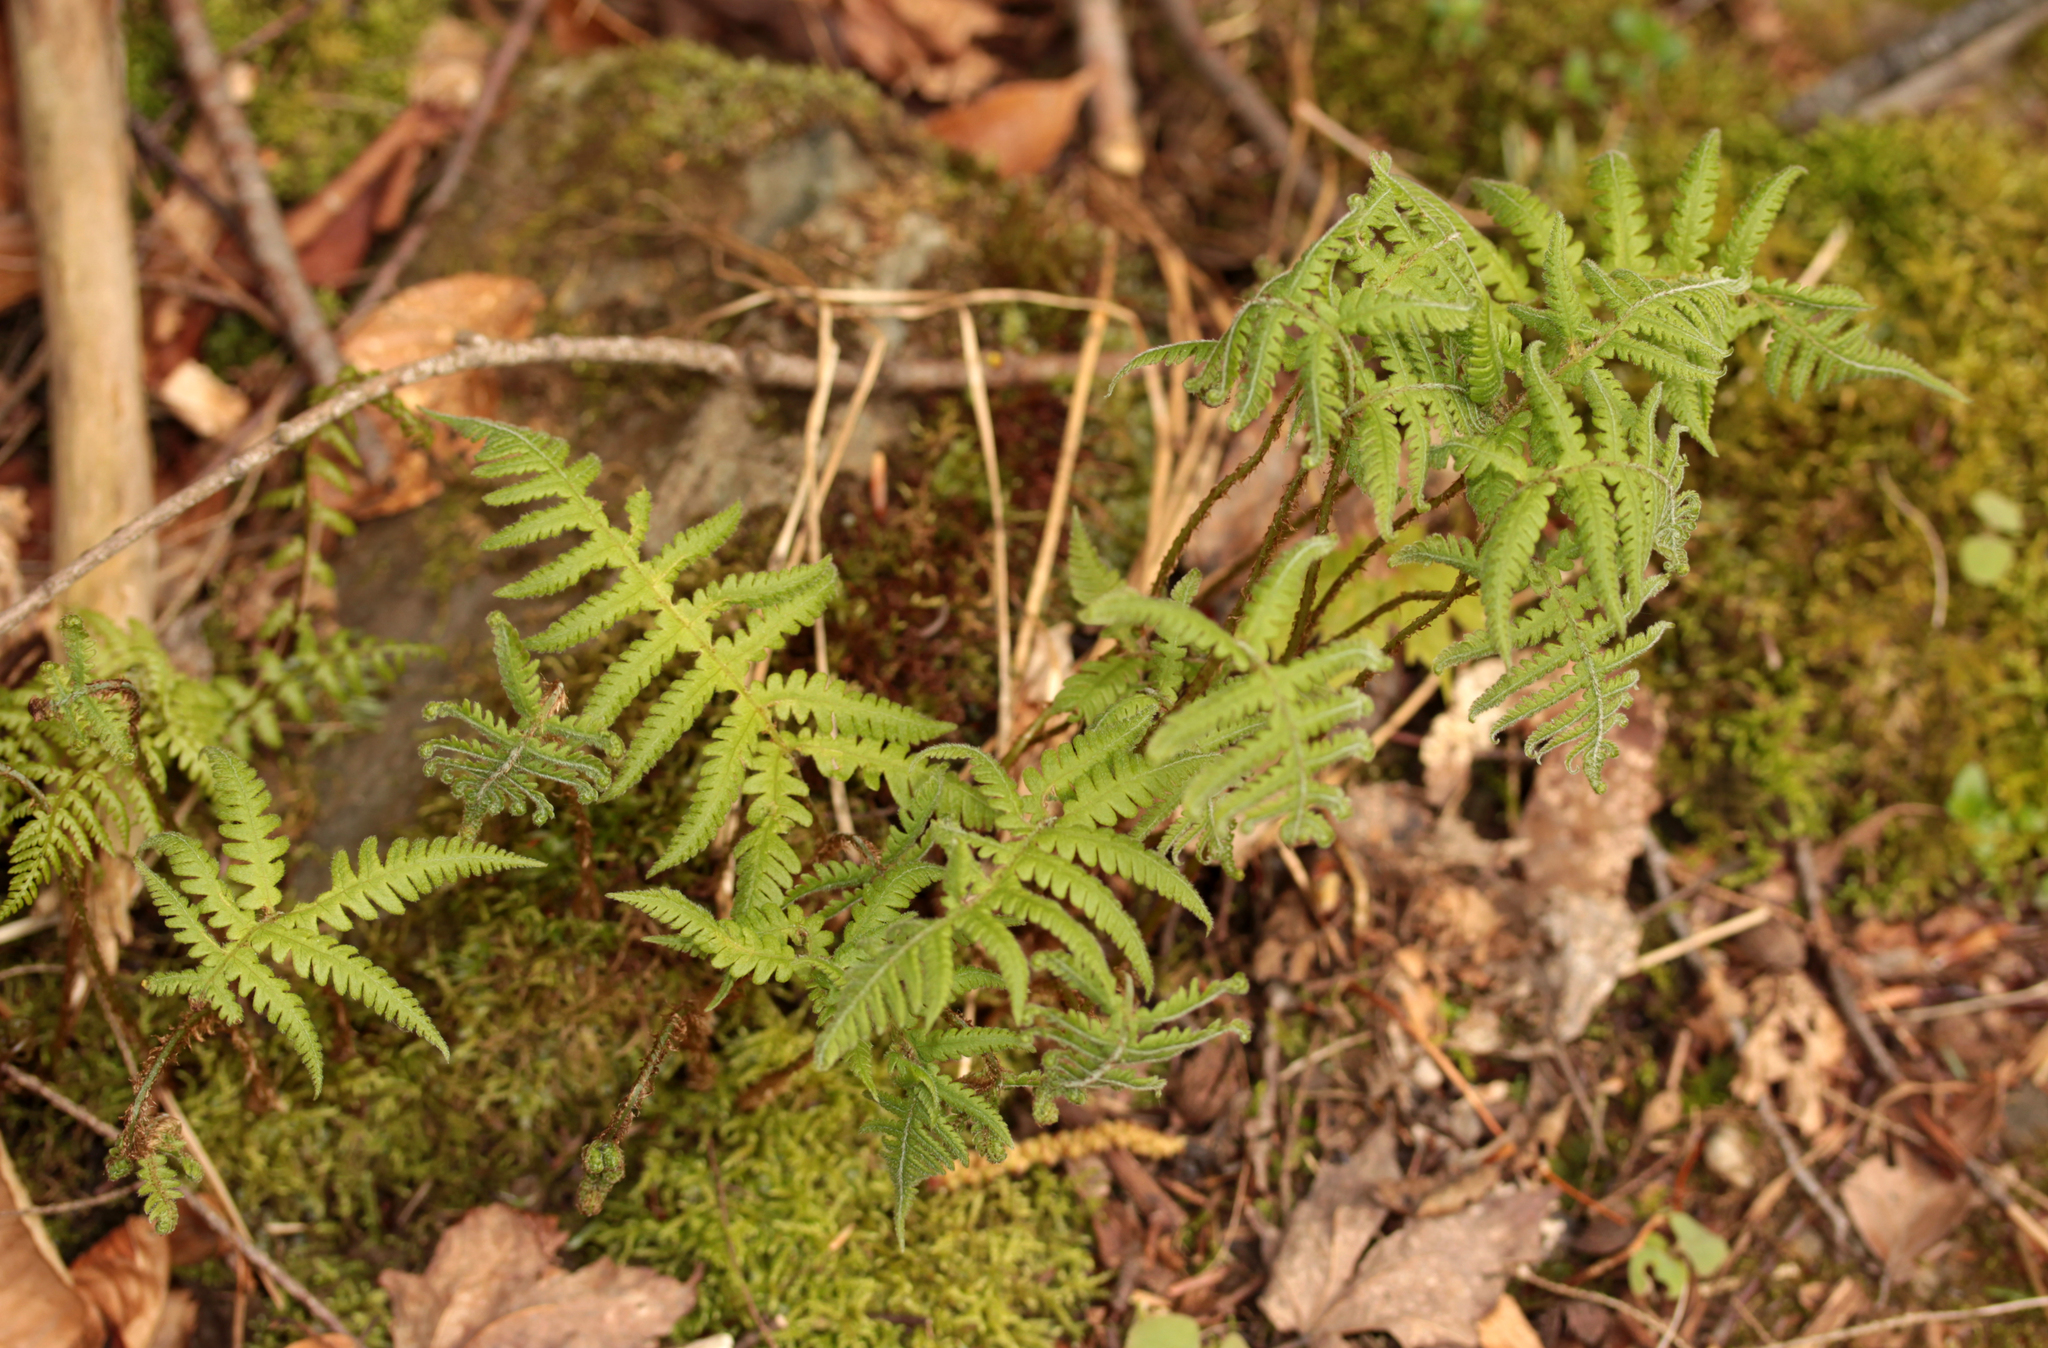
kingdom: Plantae
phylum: Tracheophyta
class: Polypodiopsida
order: Polypodiales
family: Thelypteridaceae
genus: Phegopteris
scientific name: Phegopteris connectilis
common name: Beech fern
